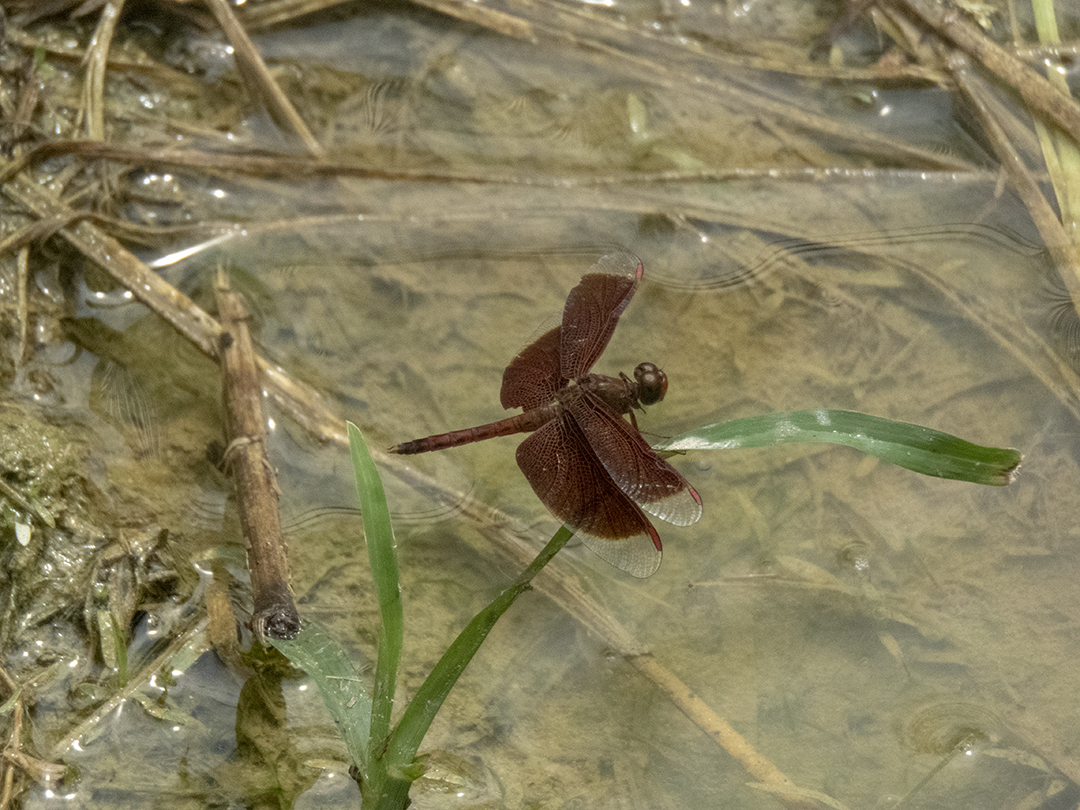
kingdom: Animalia
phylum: Arthropoda
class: Insecta
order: Odonata
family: Libellulidae
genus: Neurothemis
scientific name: Neurothemis fluctuans
